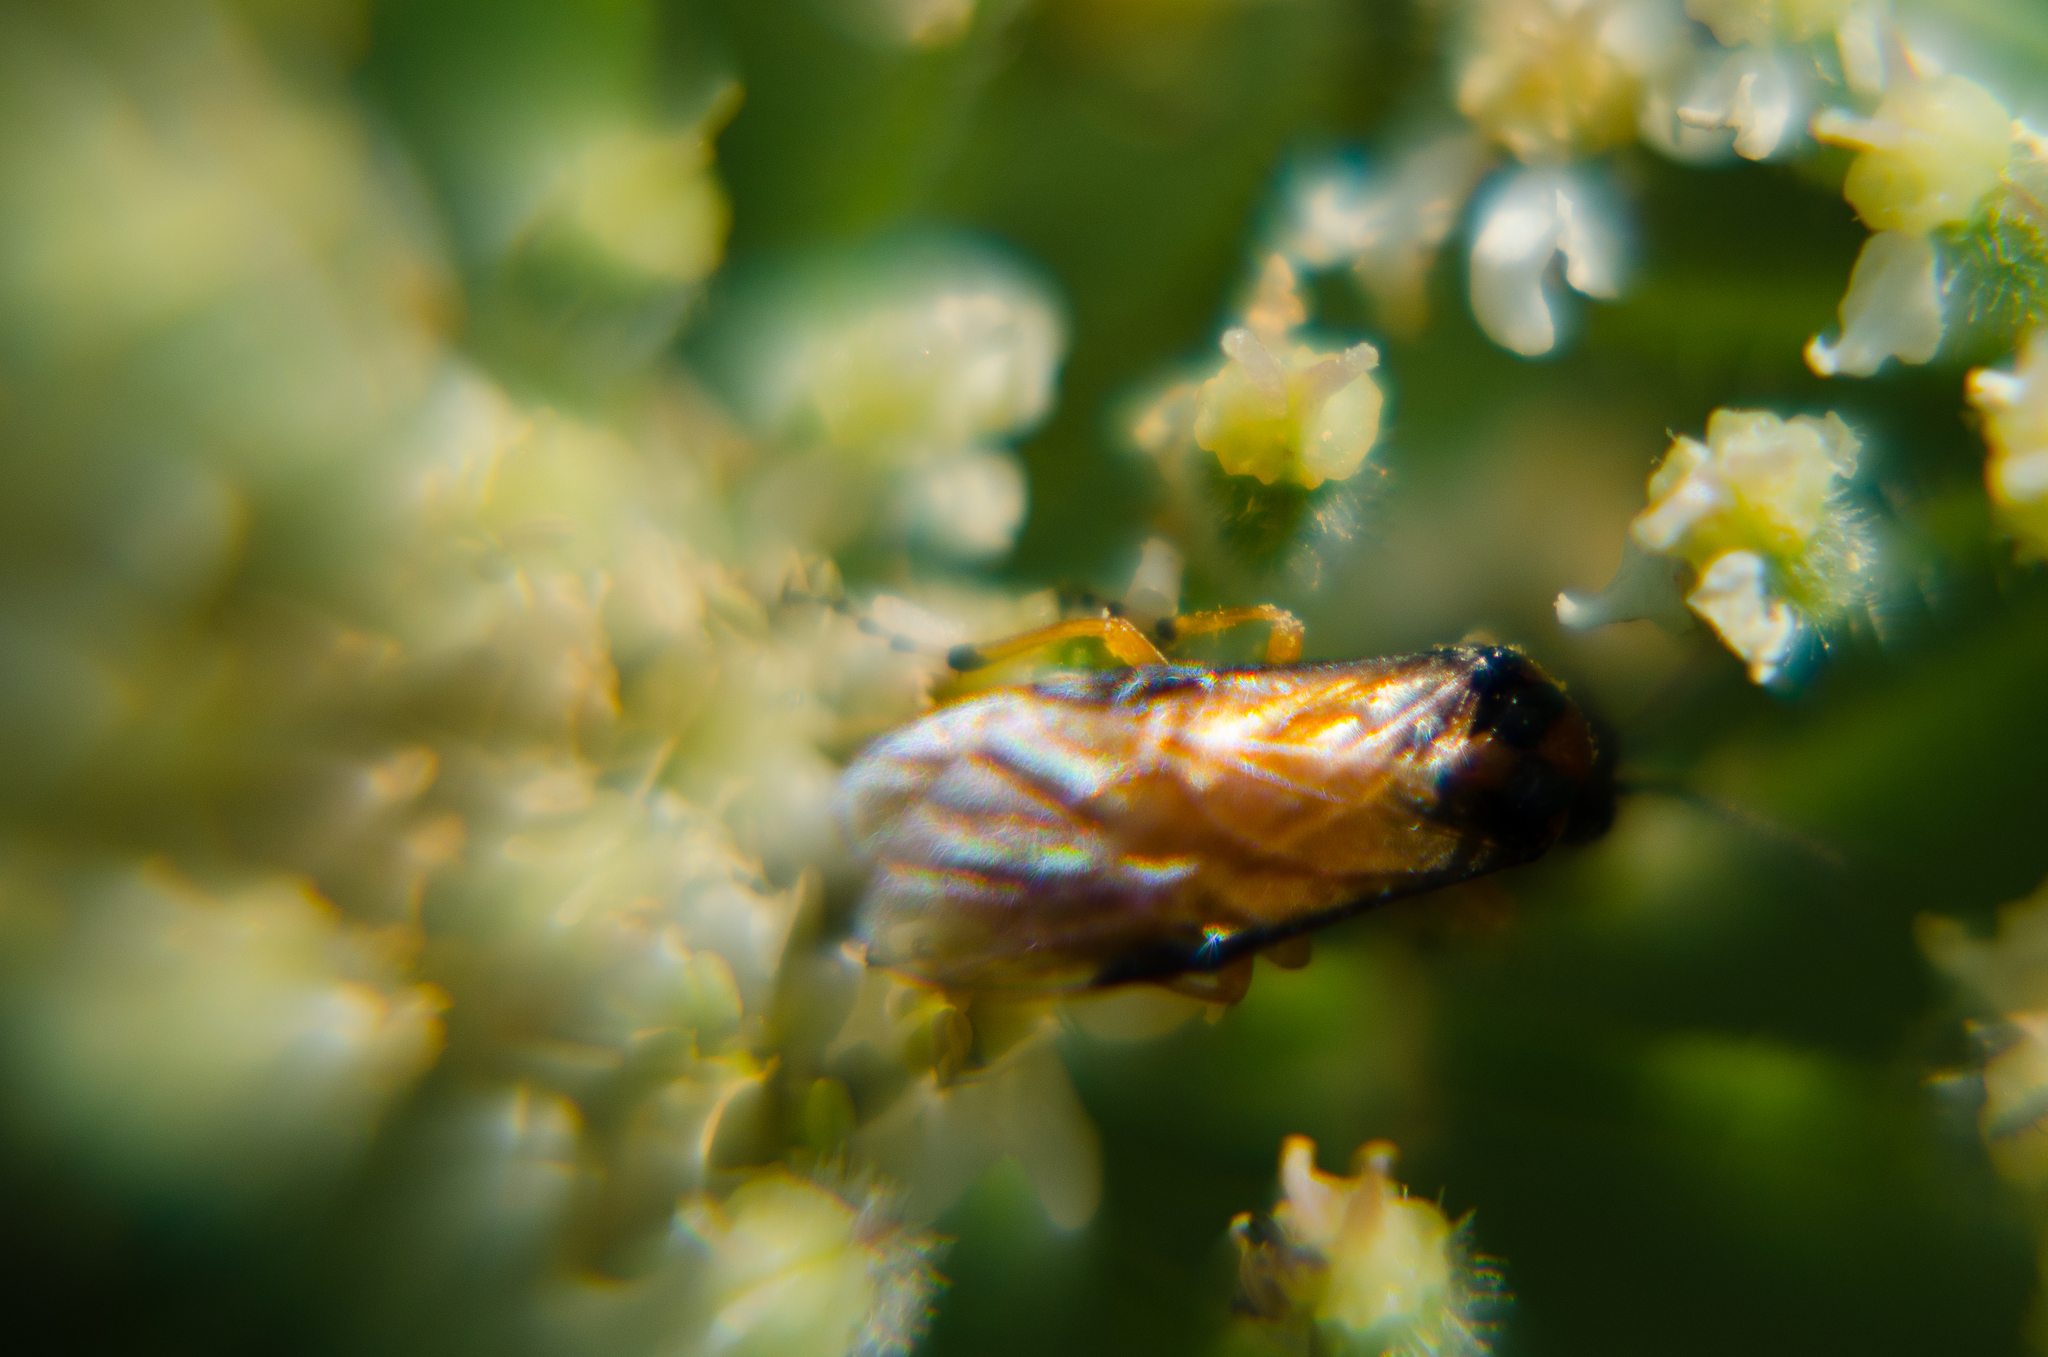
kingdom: Animalia
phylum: Arthropoda
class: Insecta
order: Hymenoptera
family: Tenthredinidae
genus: Athalia
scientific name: Athalia rosae
